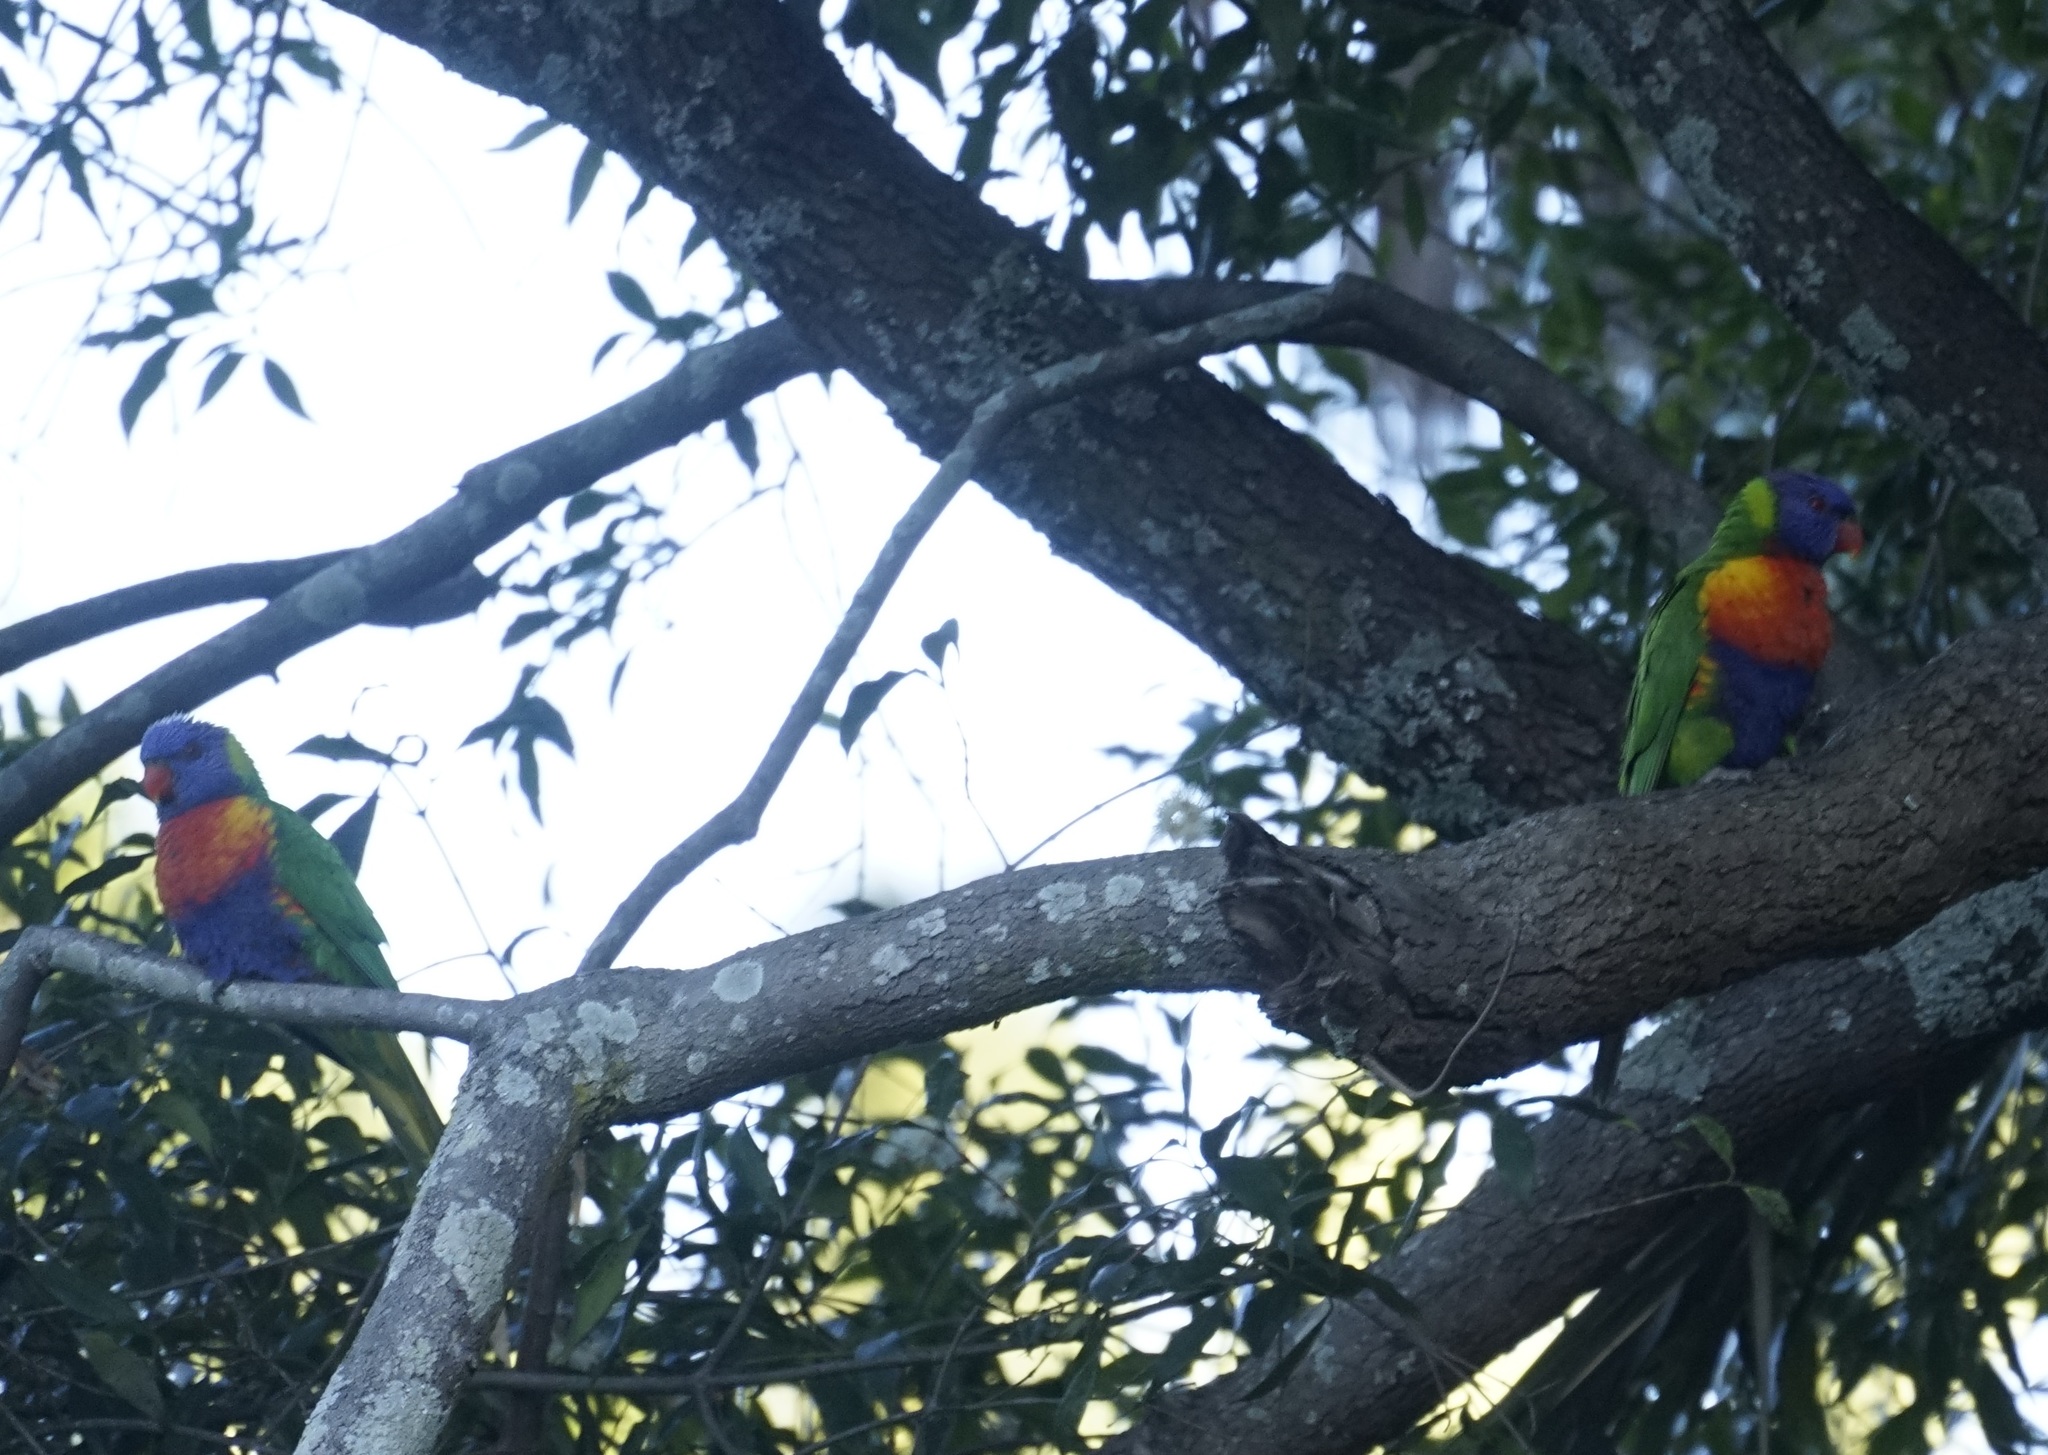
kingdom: Animalia
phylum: Chordata
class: Aves
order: Psittaciformes
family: Psittacidae
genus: Trichoglossus
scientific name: Trichoglossus haematodus
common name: Coconut lorikeet
